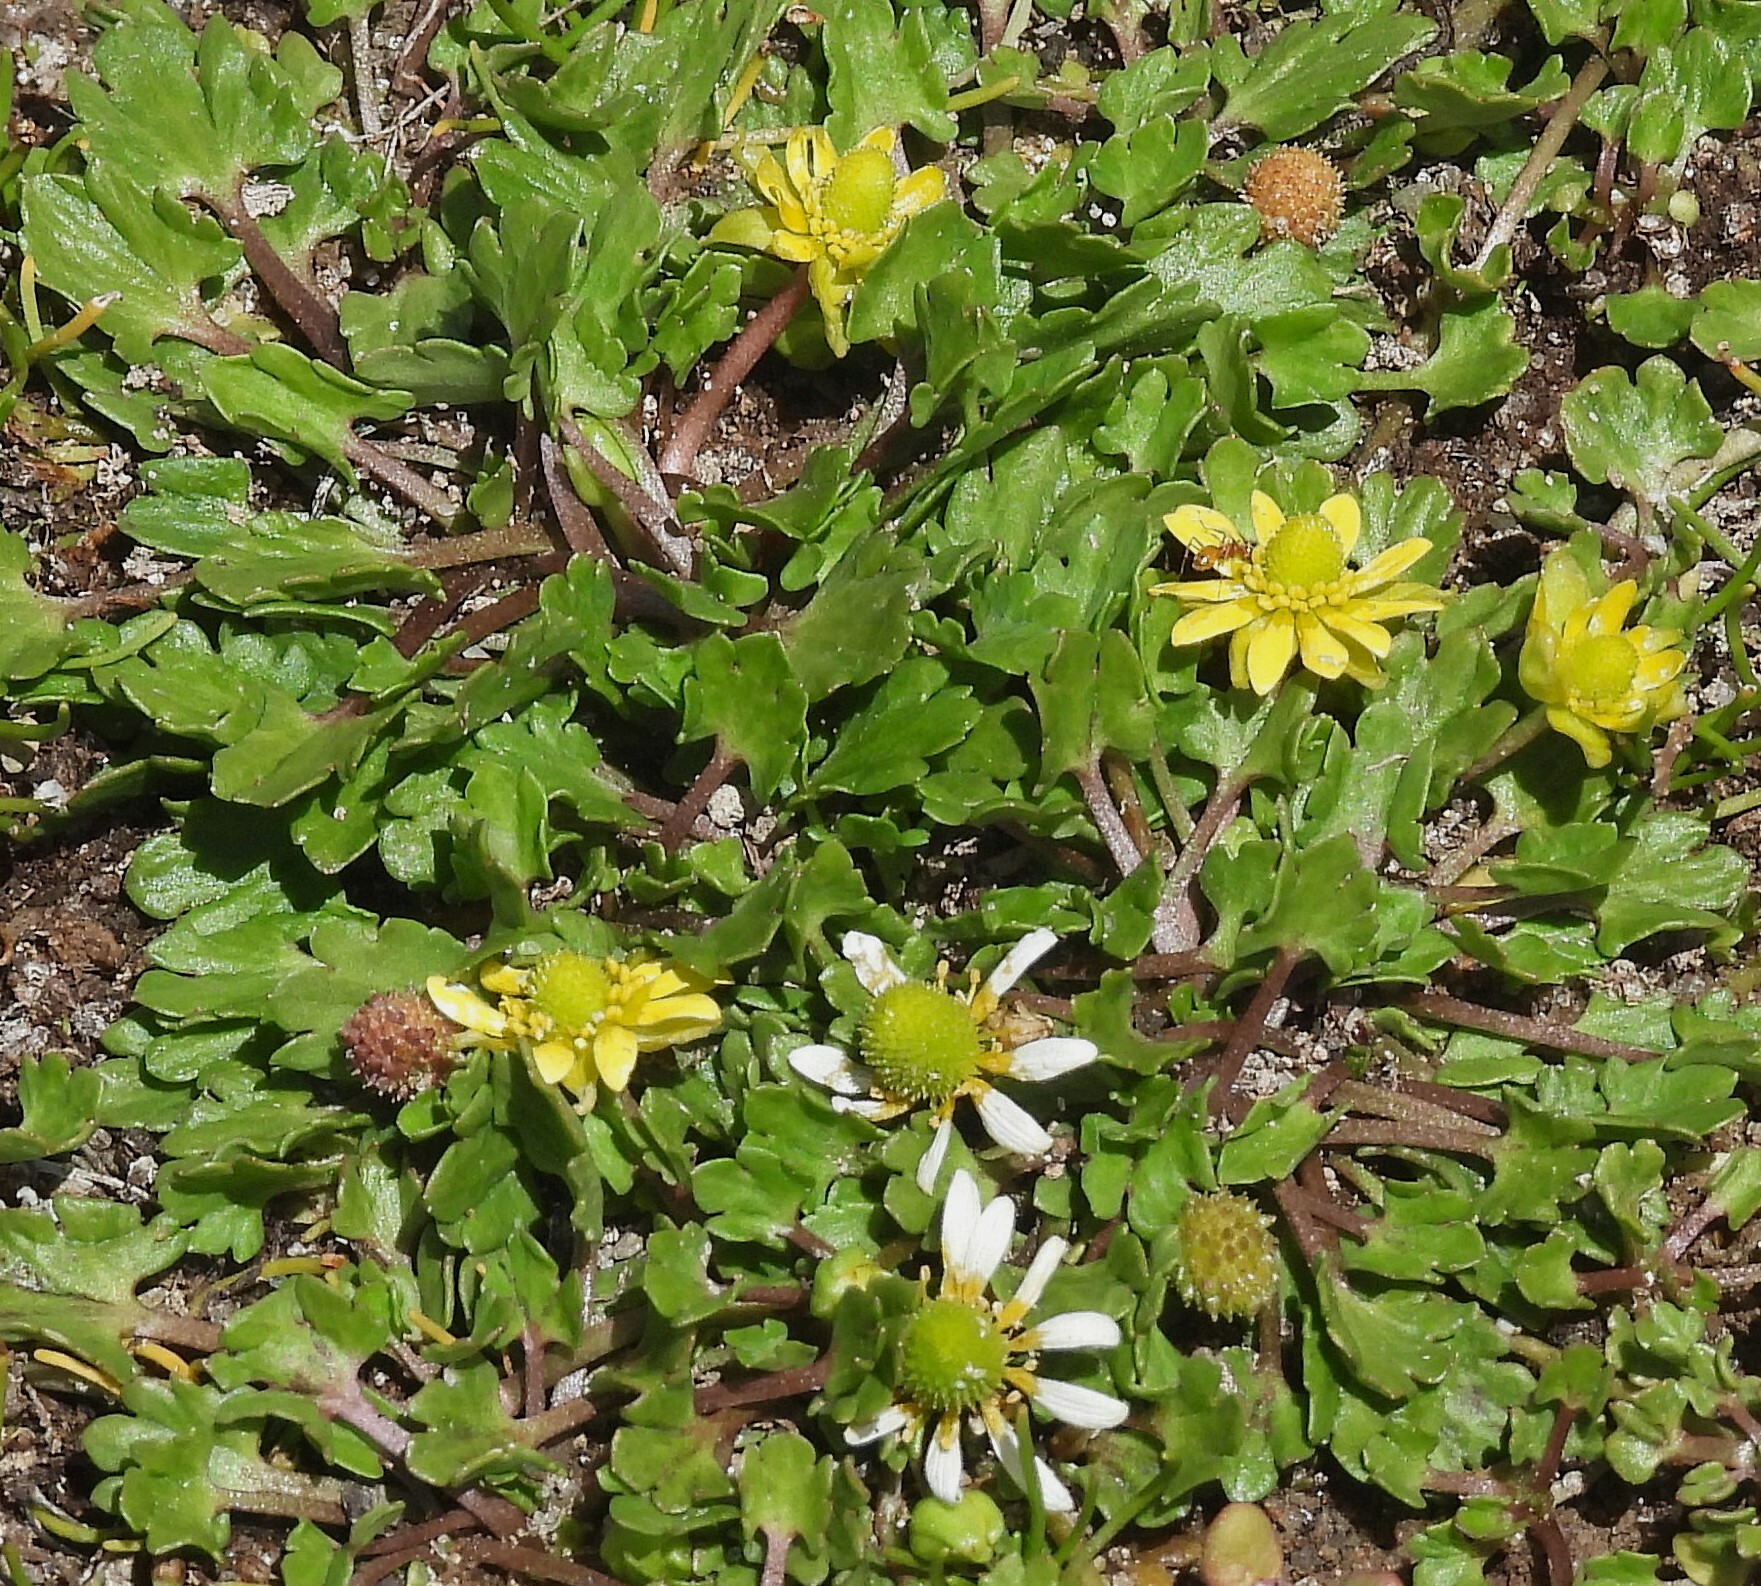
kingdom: Plantae
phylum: Tracheophyta
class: Magnoliopsida
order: Ranunculales
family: Ranunculaceae
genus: Halerpestes
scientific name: Halerpestes exilis
